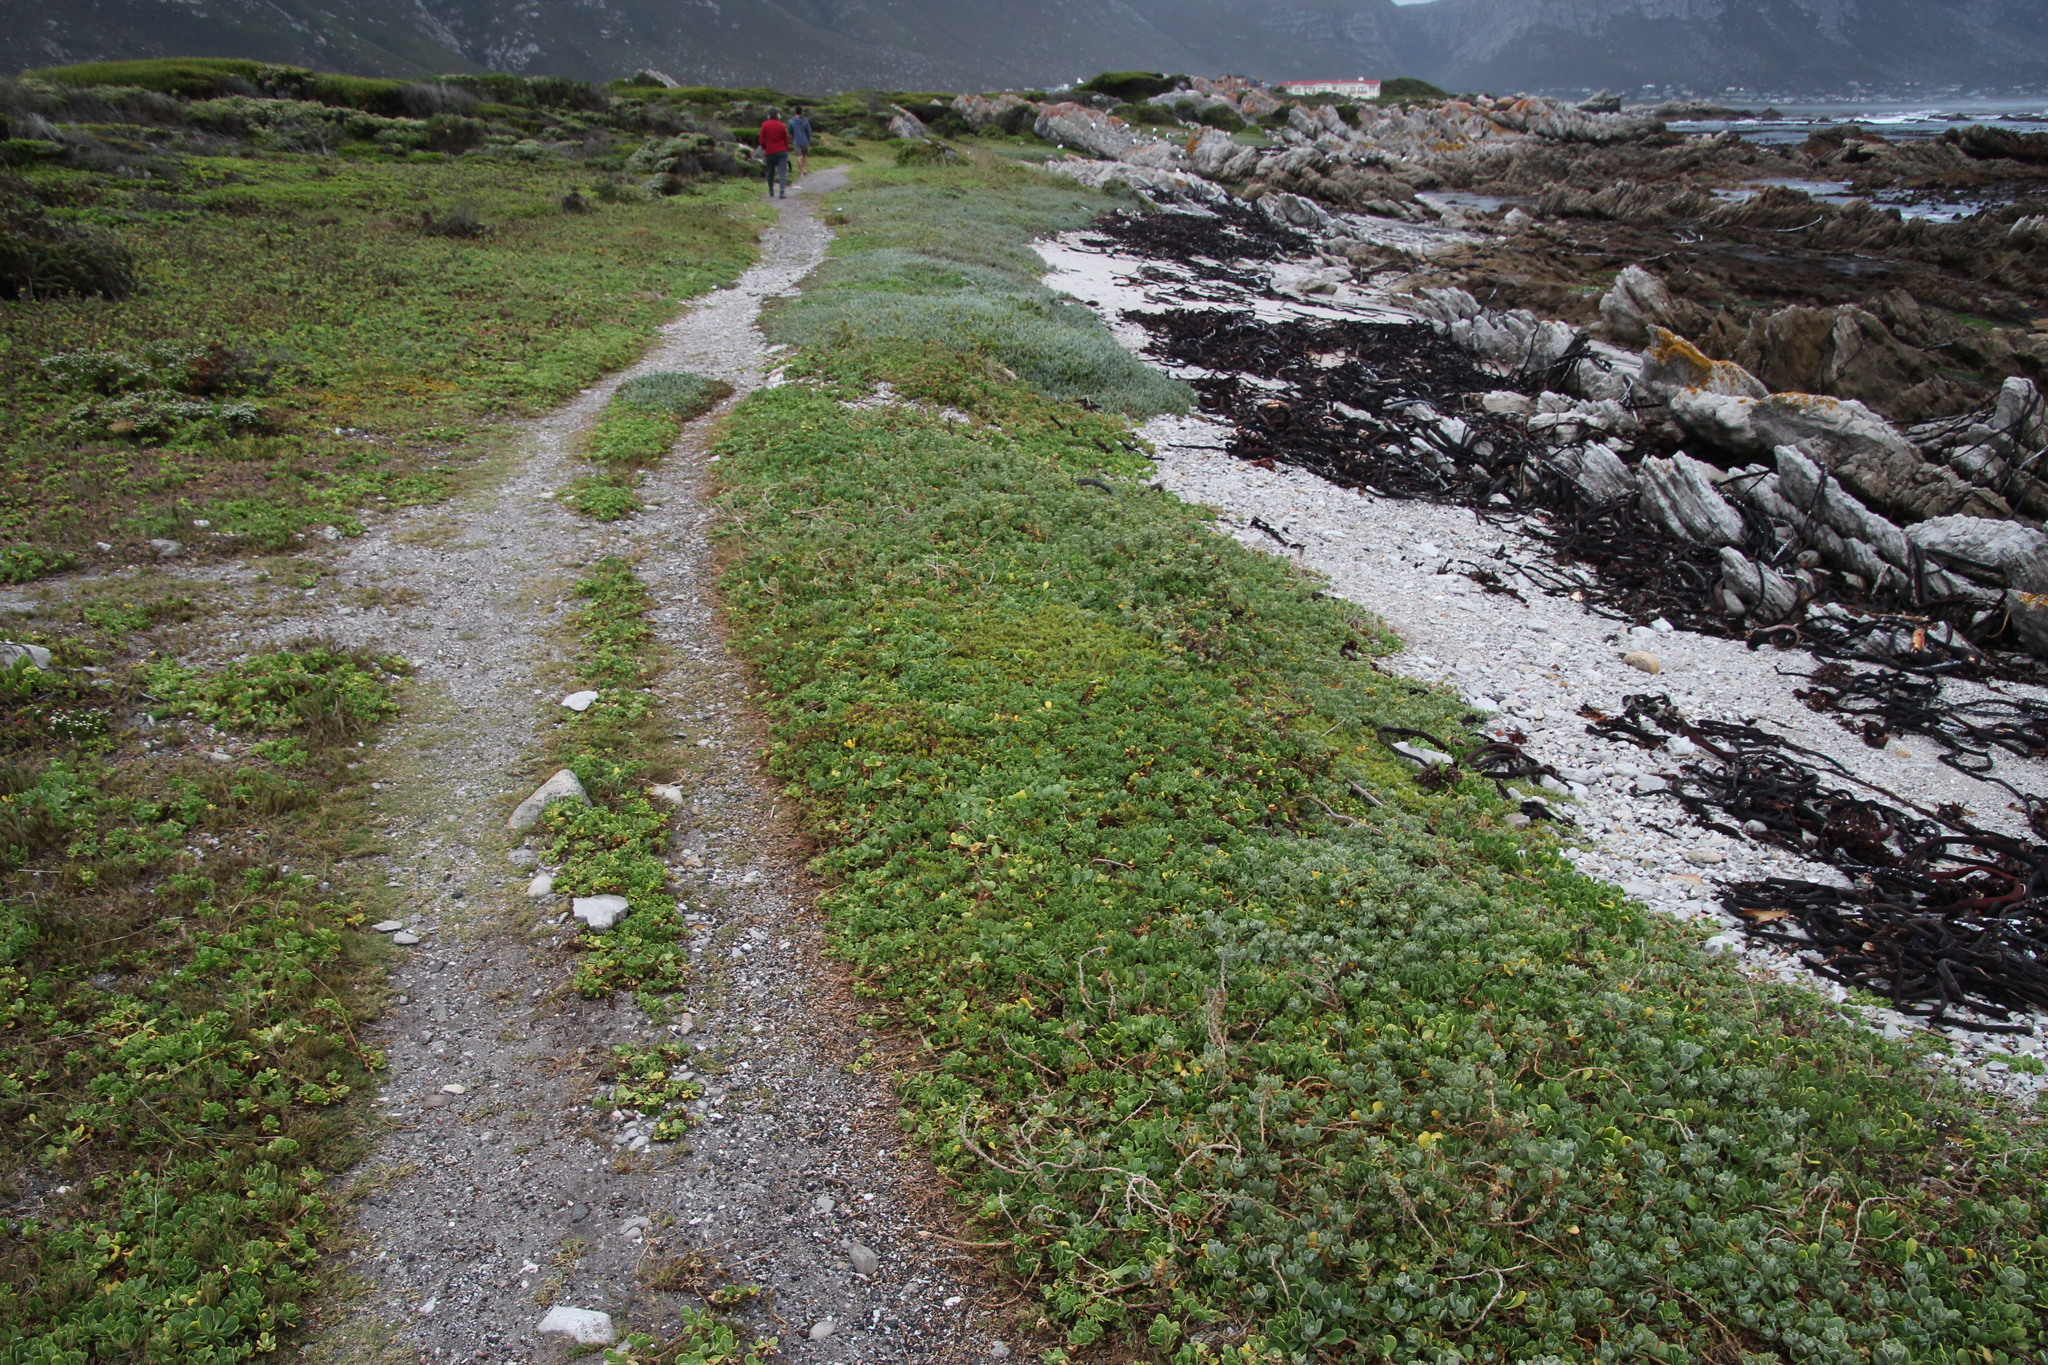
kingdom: Plantae
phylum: Tracheophyta
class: Magnoliopsida
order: Asterales
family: Asteraceae
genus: Dimorphotheca
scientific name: Dimorphotheca fruticosa
